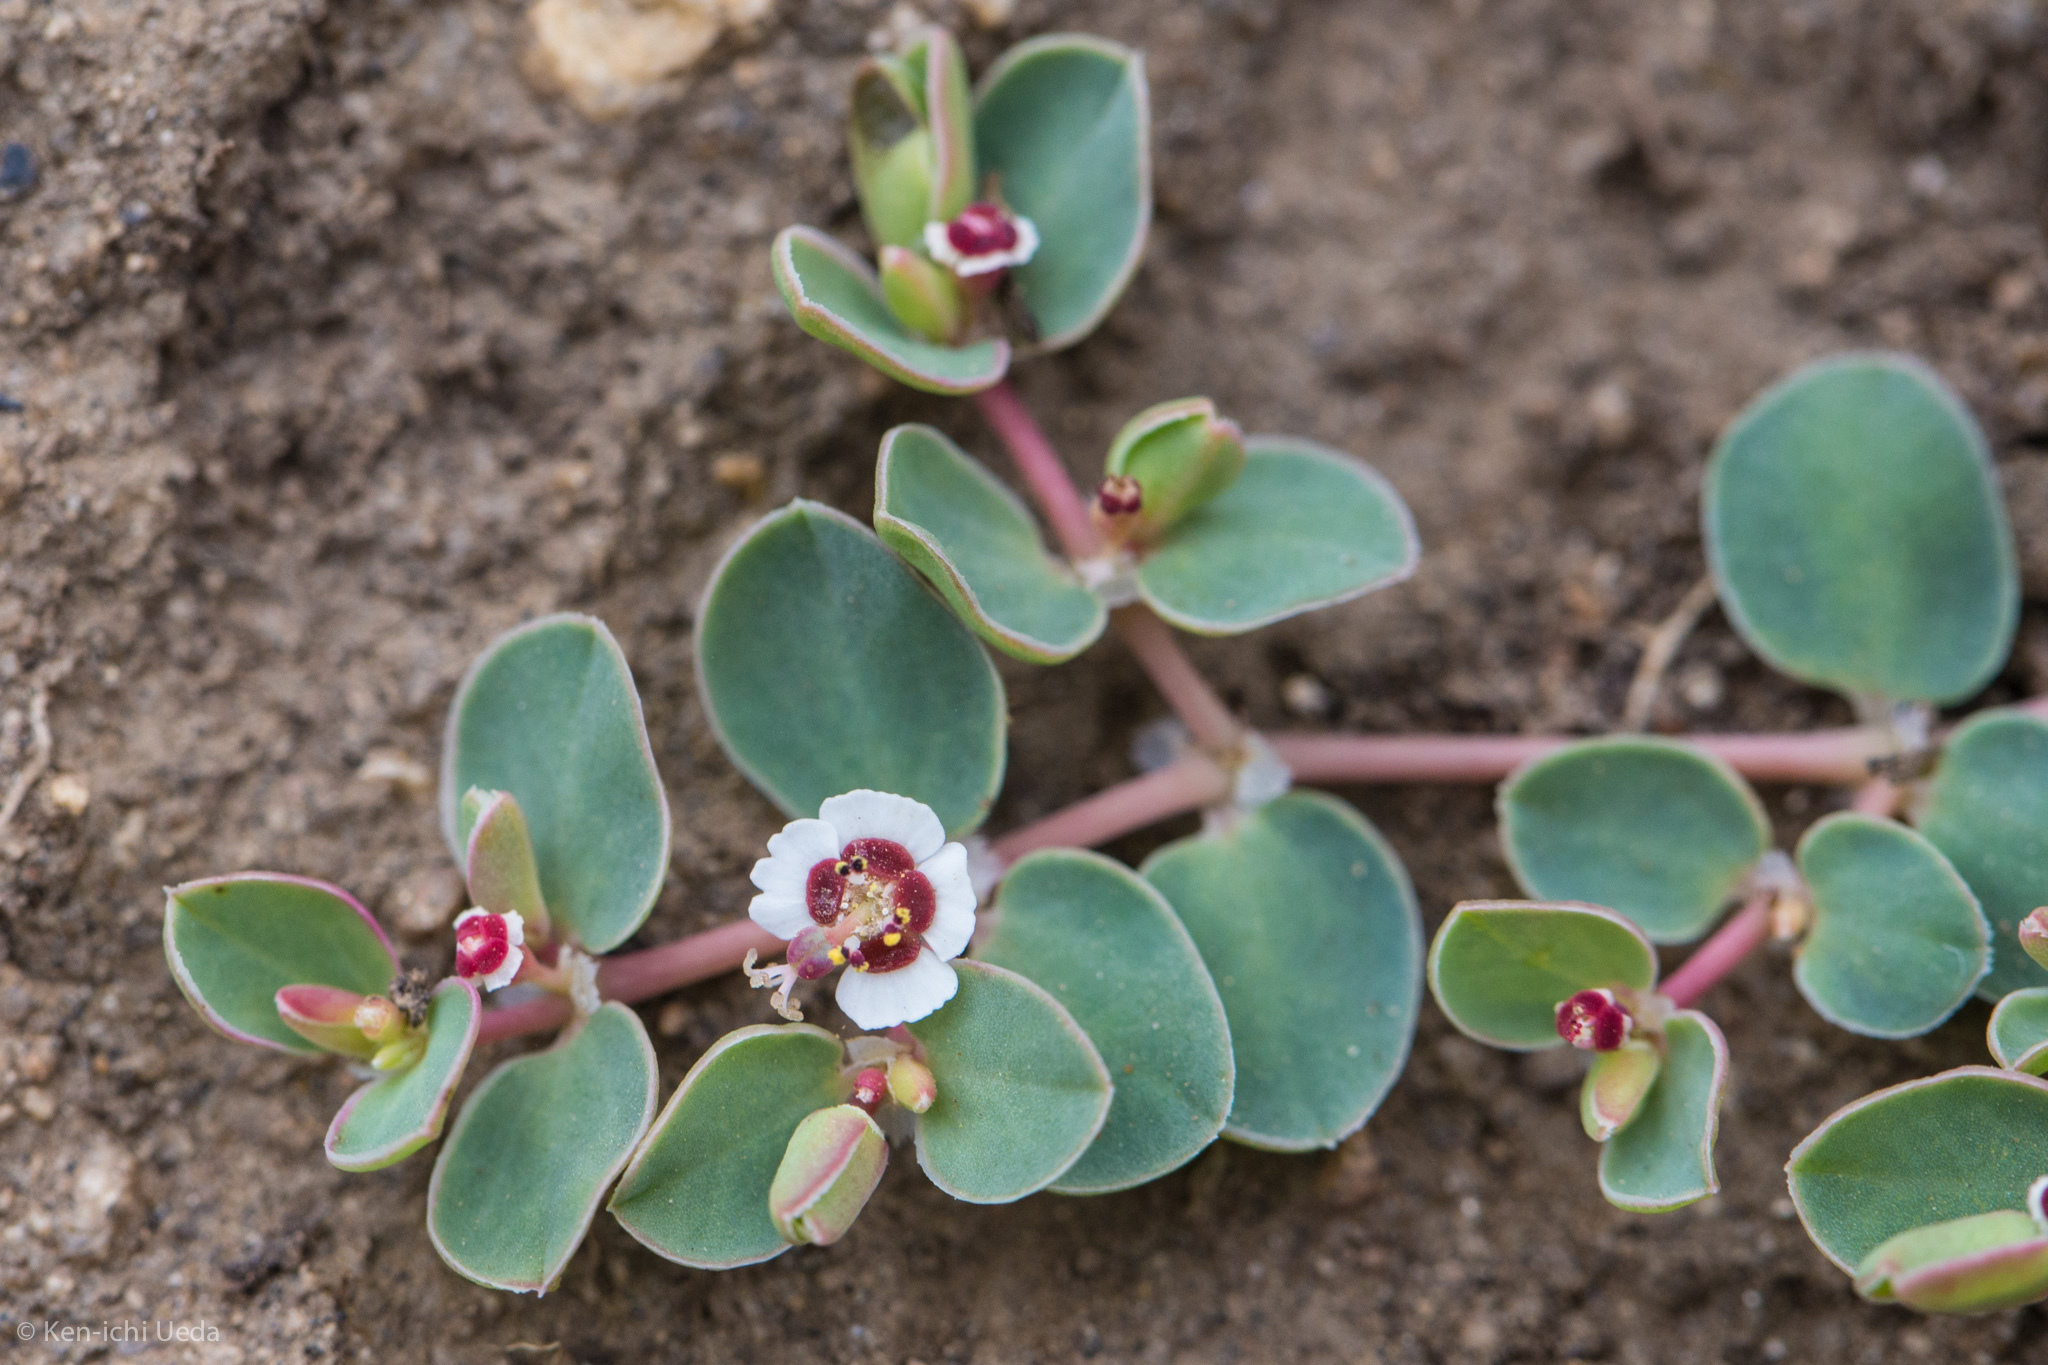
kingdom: Plantae
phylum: Tracheophyta
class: Magnoliopsida
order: Malpighiales
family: Euphorbiaceae
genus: Euphorbia
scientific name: Euphorbia albomarginata
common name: Whitemargin sandmat
